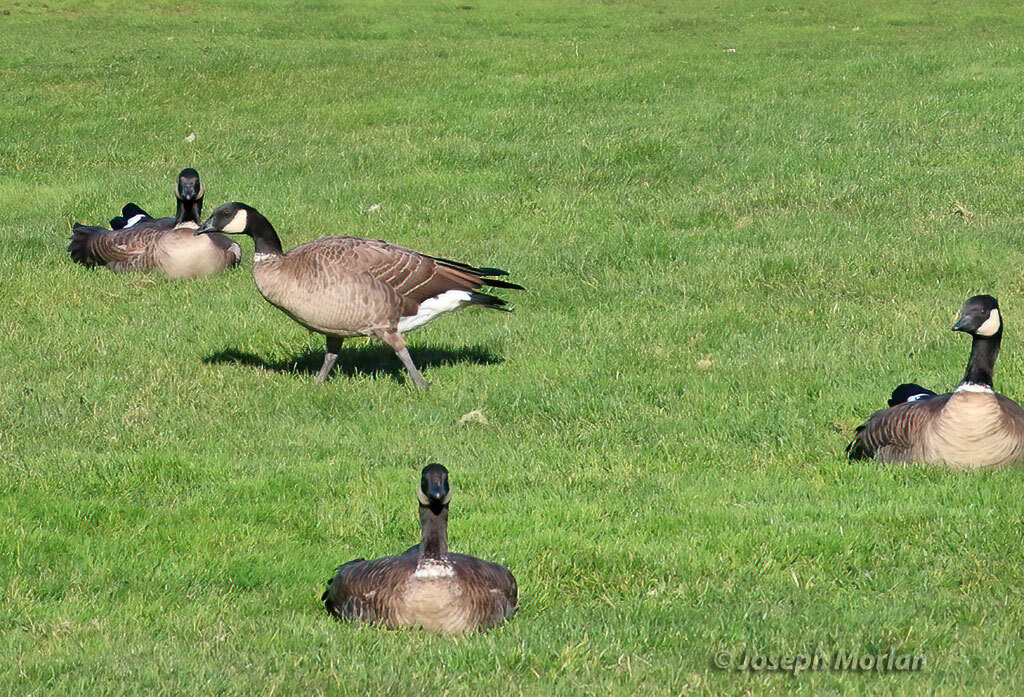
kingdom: Animalia
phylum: Chordata
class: Aves
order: Anseriformes
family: Anatidae
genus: Branta
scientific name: Branta hutchinsii
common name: Cackling goose
